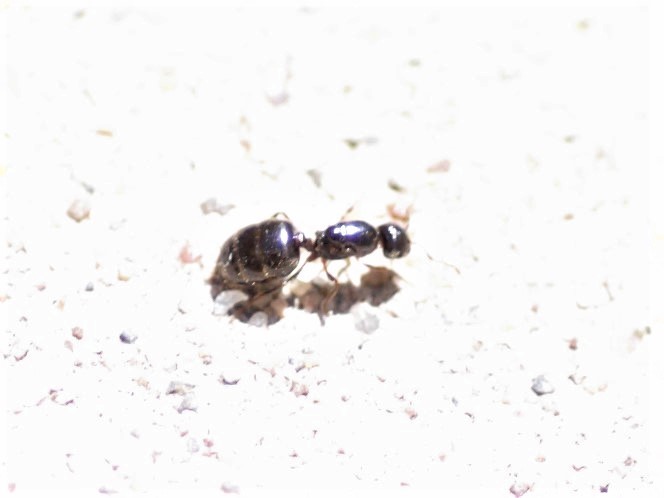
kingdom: Animalia
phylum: Arthropoda
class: Insecta
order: Hymenoptera
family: Formicidae
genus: Crematogaster
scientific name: Crematogaster
